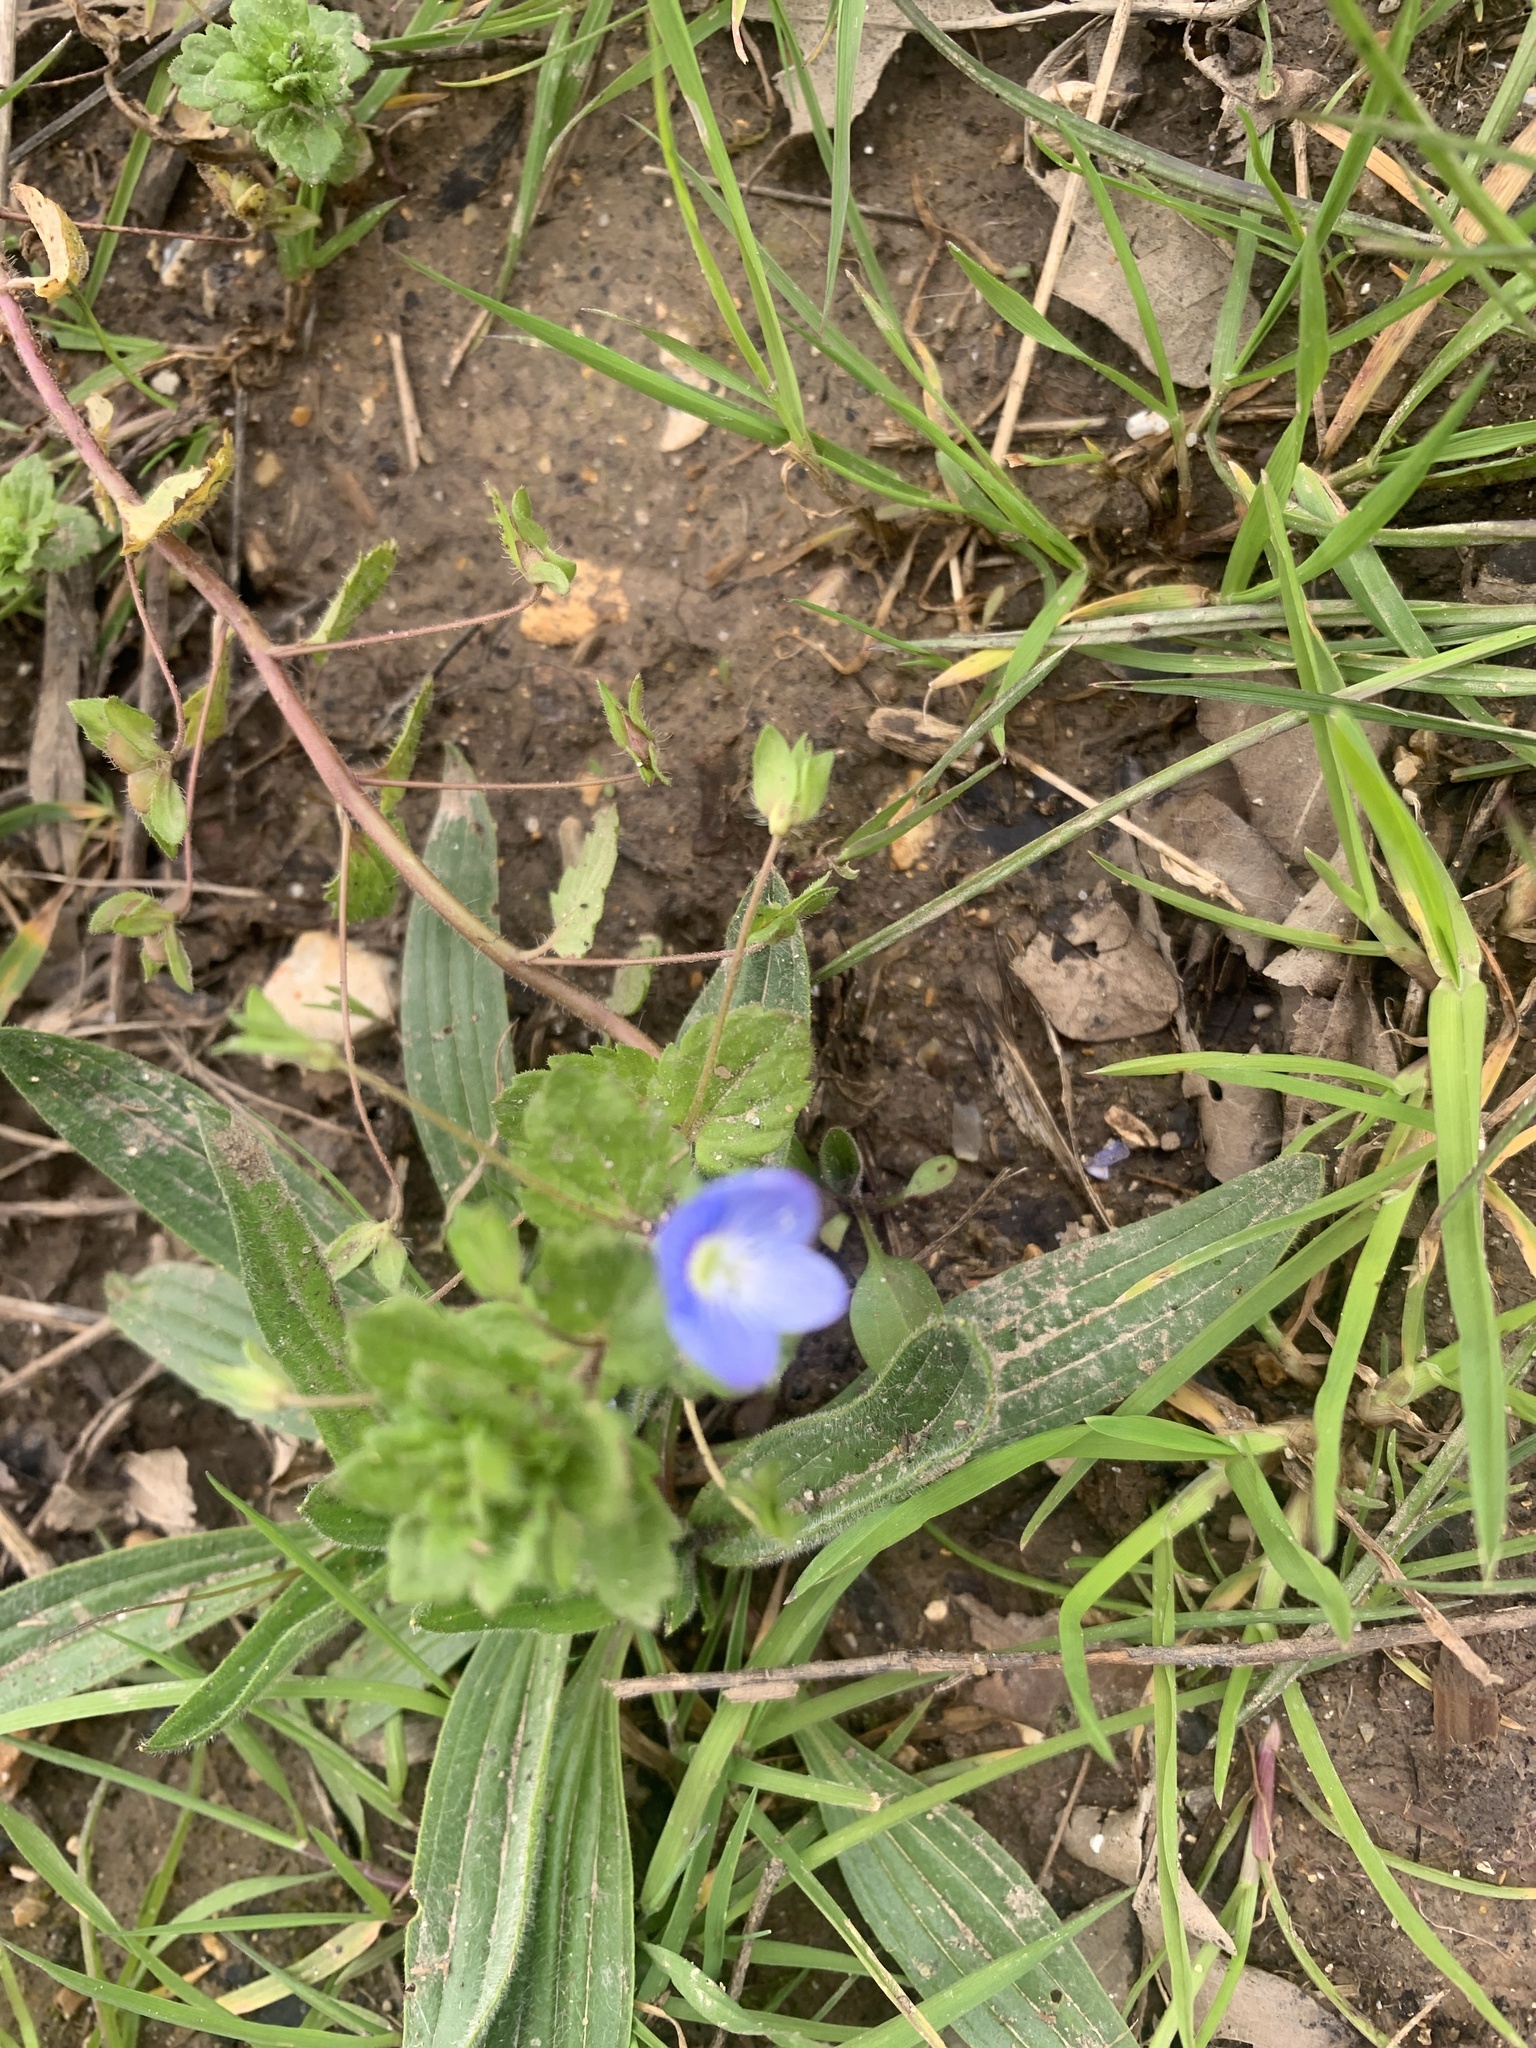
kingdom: Plantae
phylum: Tracheophyta
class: Magnoliopsida
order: Lamiales
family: Plantaginaceae
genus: Veronica
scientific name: Veronica persica
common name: Common field-speedwell
